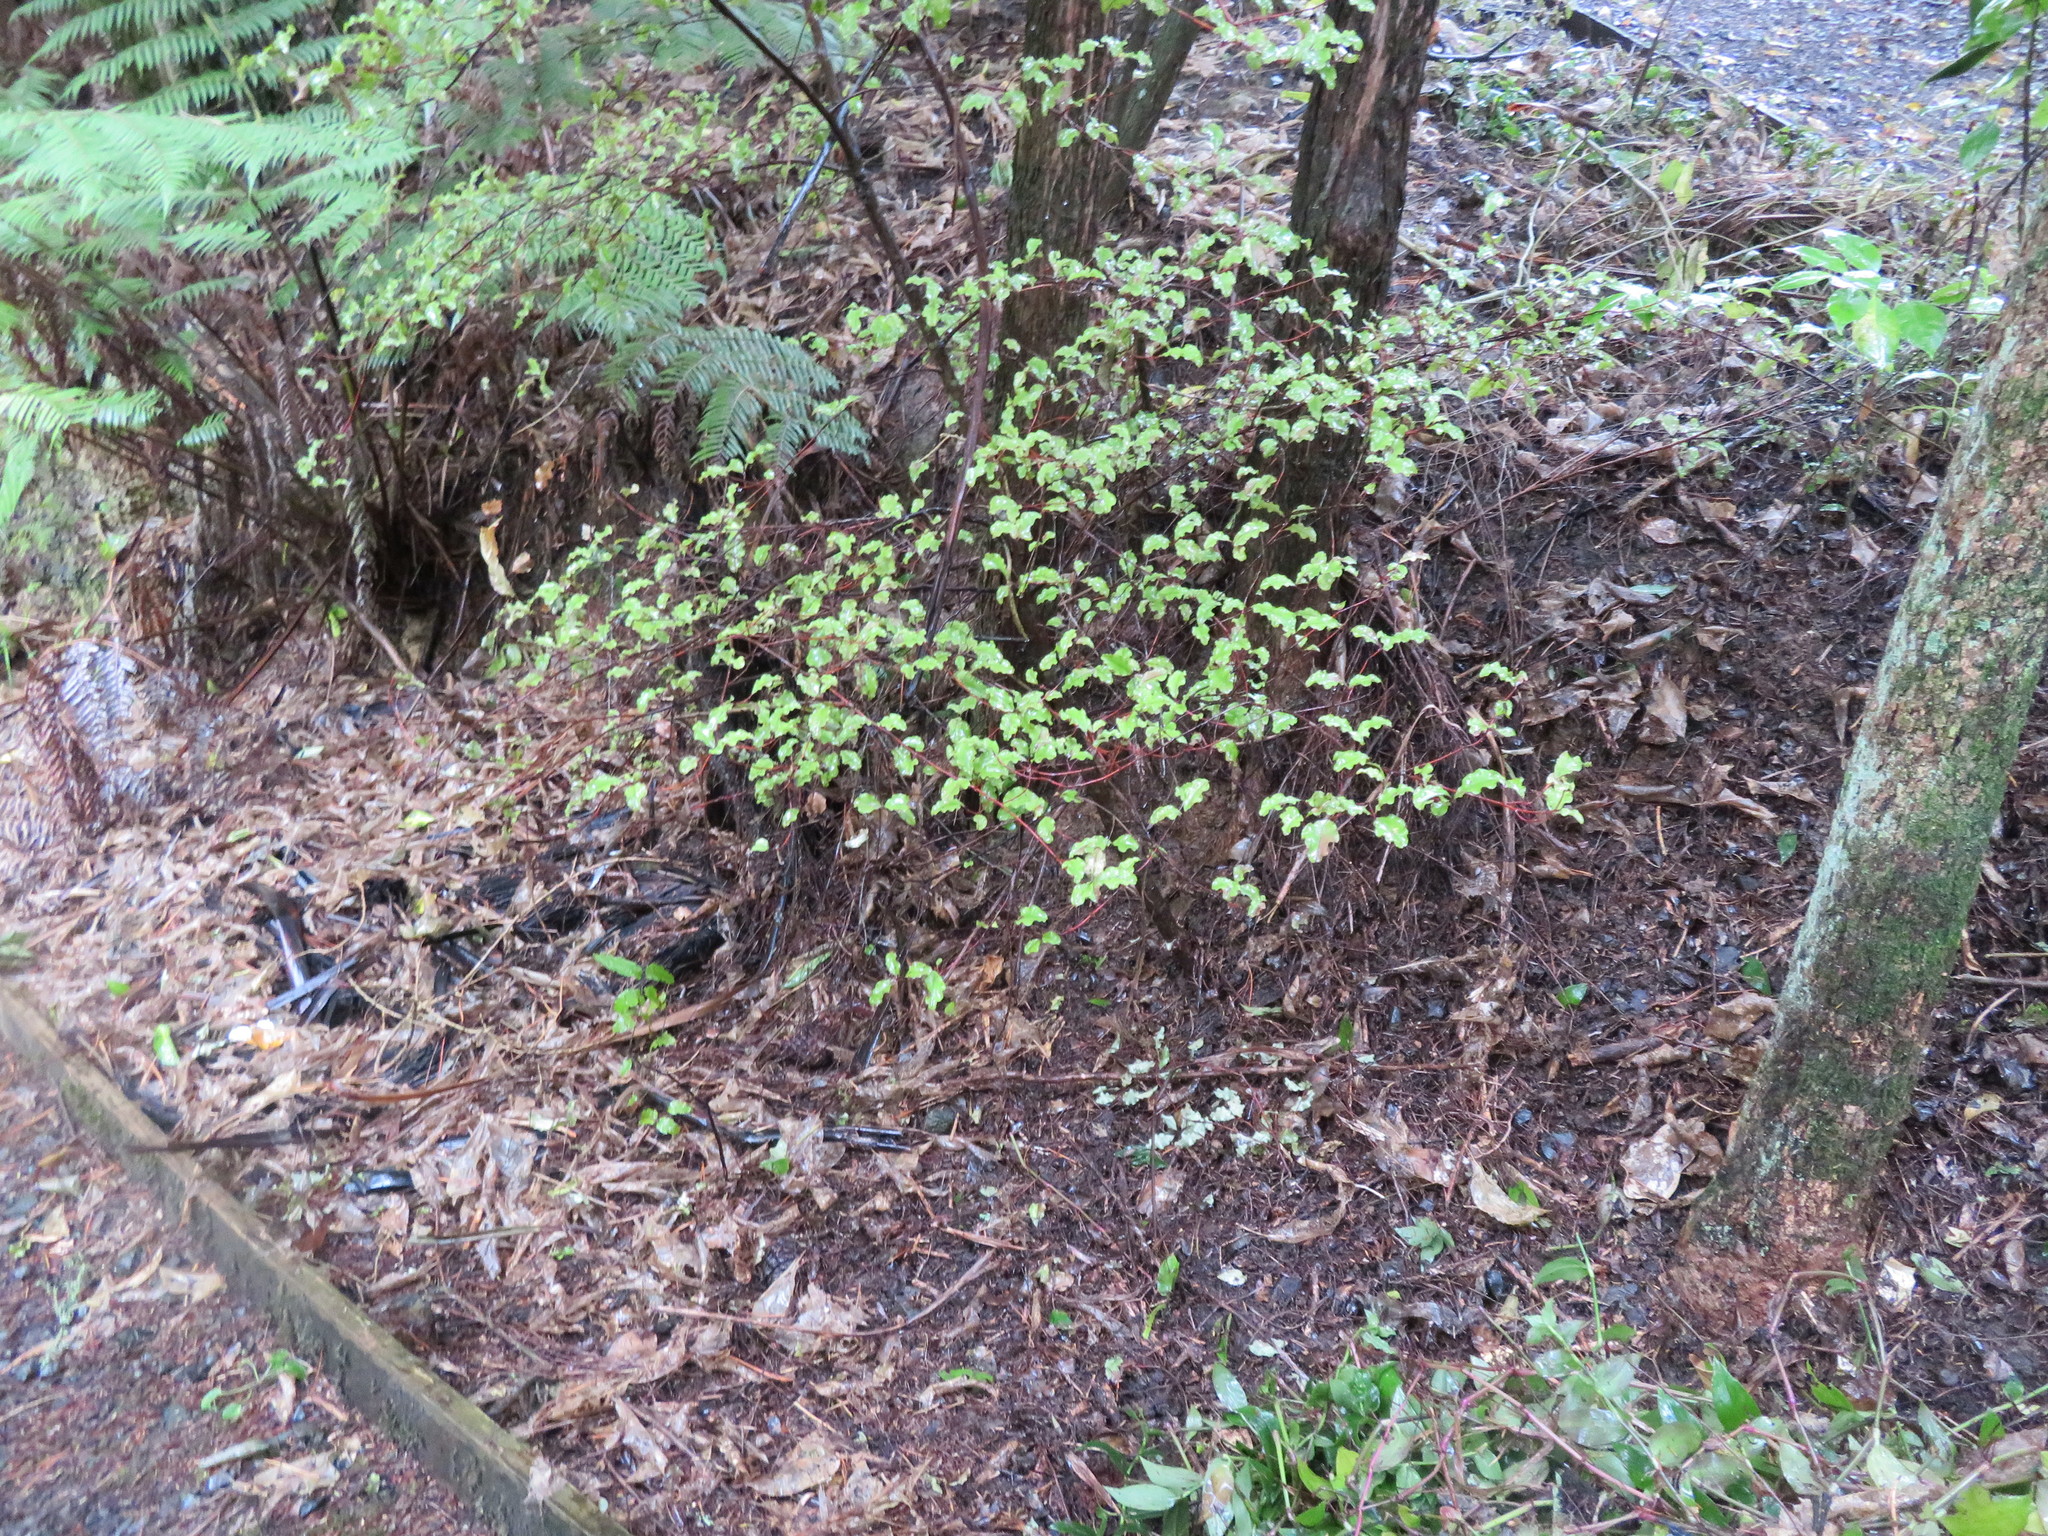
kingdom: Plantae
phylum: Tracheophyta
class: Magnoliopsida
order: Ericales
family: Primulaceae
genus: Myrsine
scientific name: Myrsine australis
